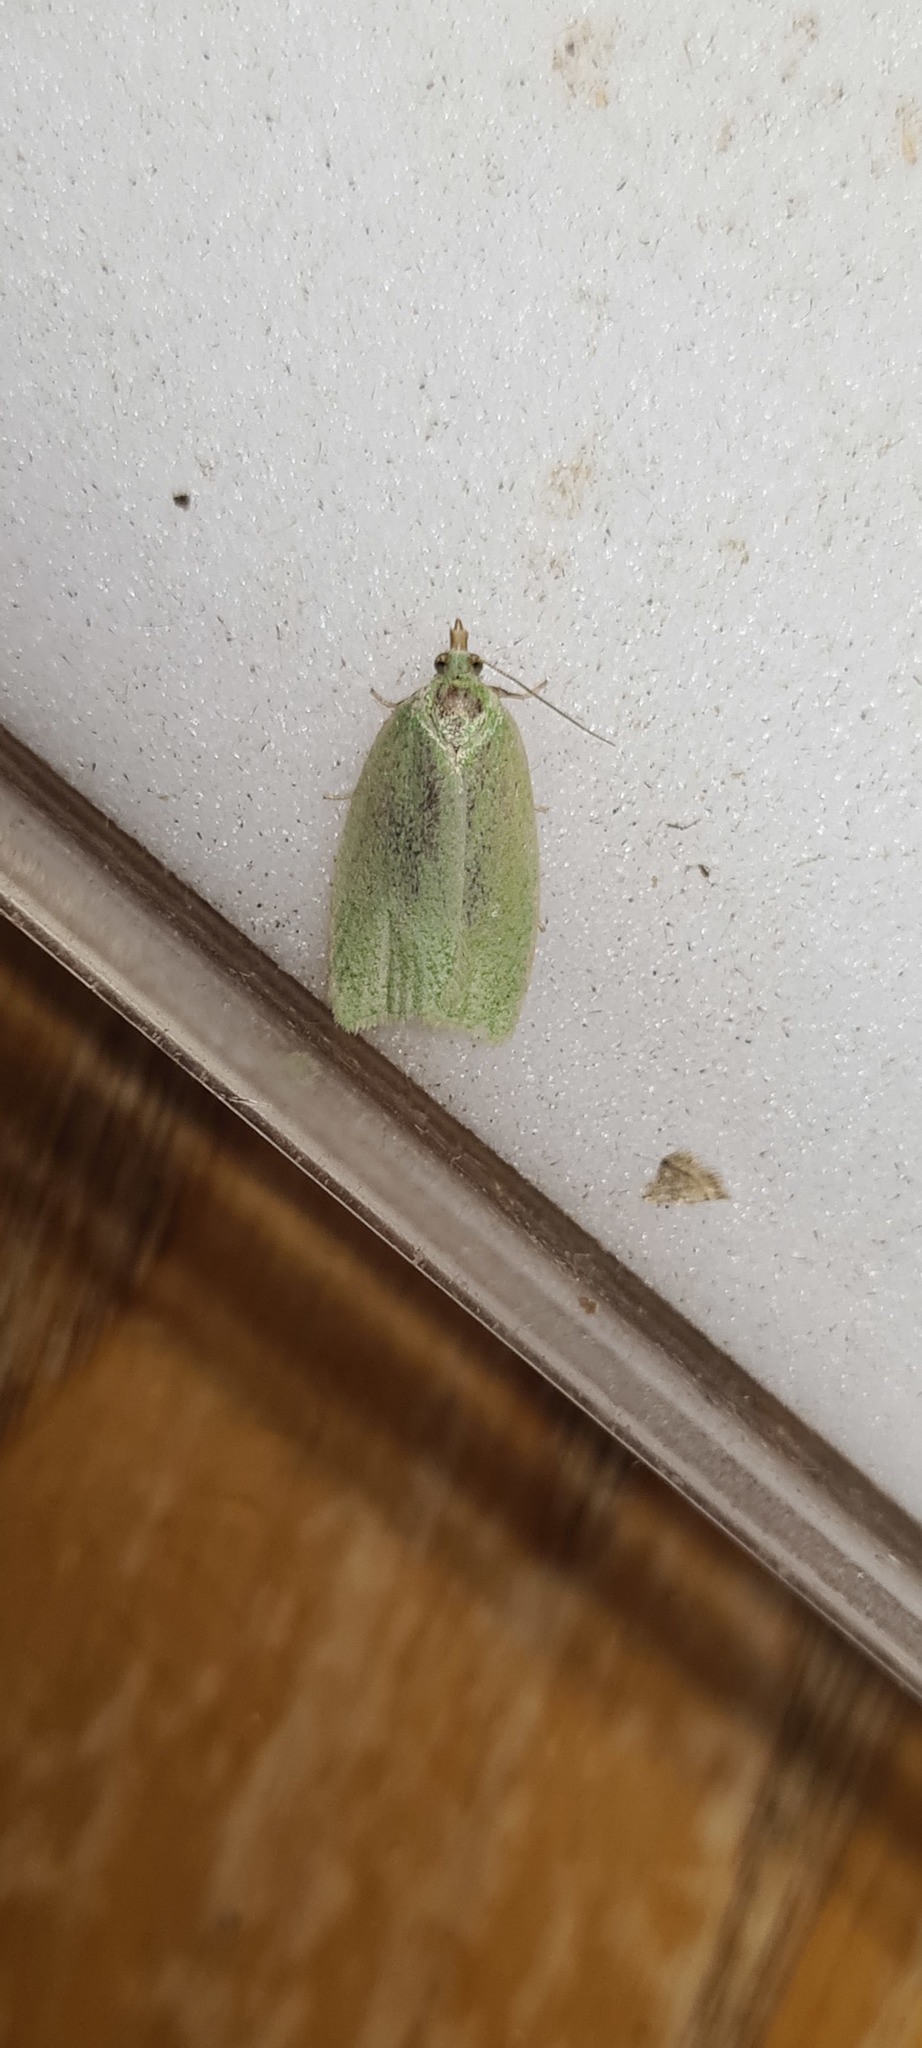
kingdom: Animalia
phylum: Arthropoda
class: Insecta
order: Lepidoptera
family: Tortricidae
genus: Tortrix
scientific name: Tortrix viridana
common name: Green oak tortrix
